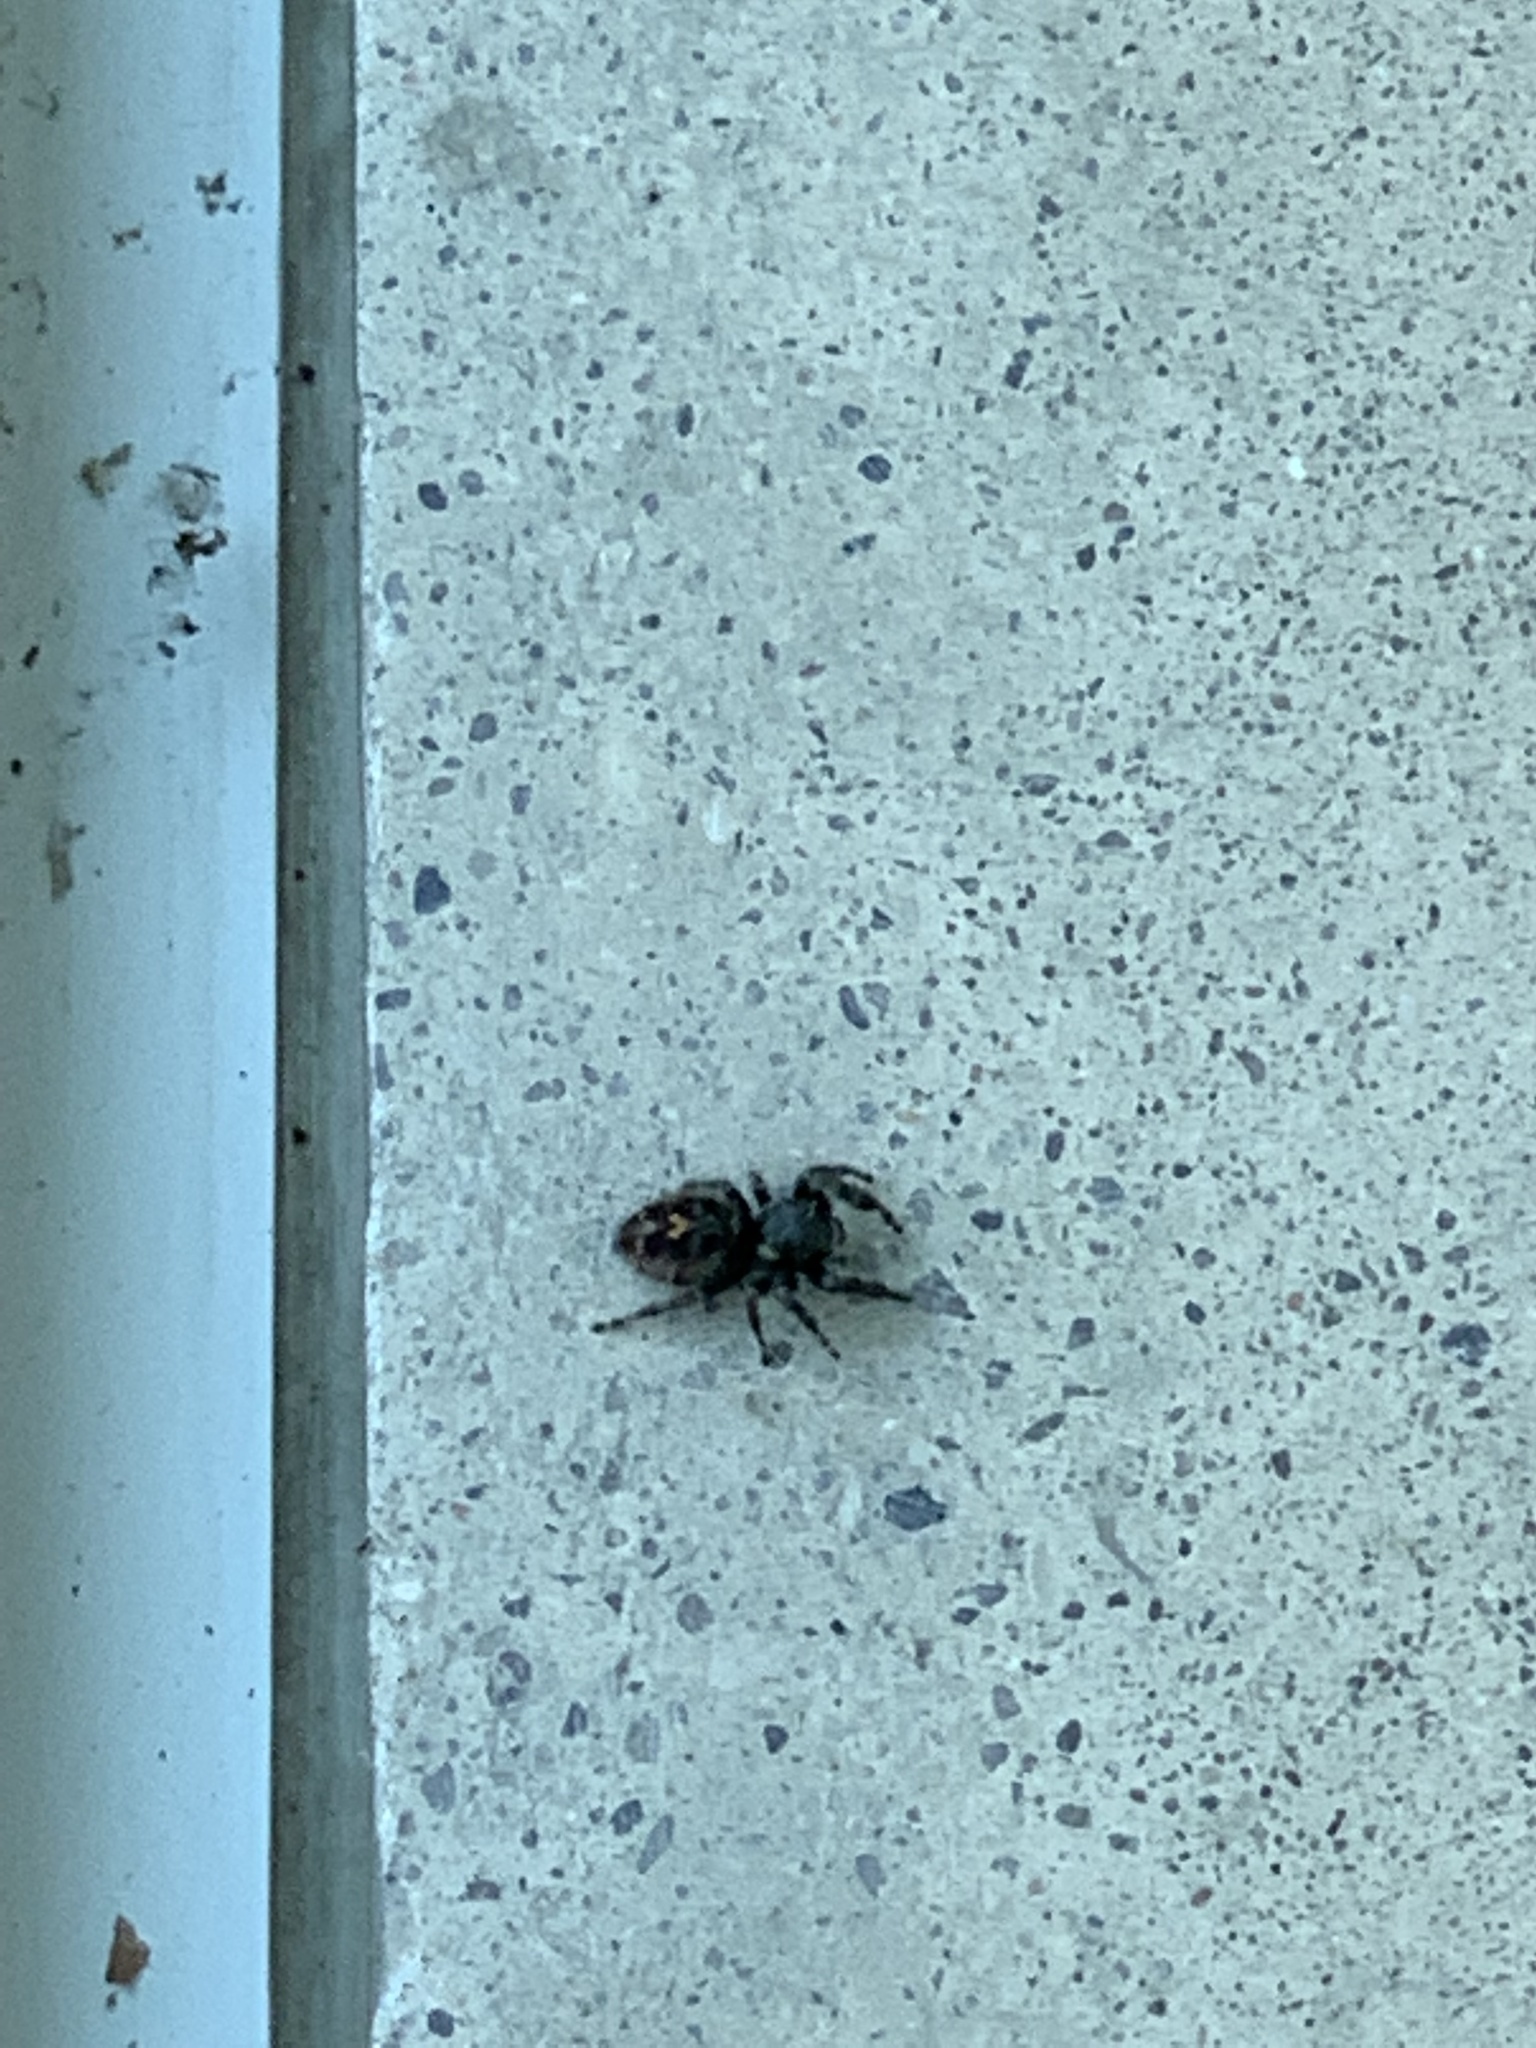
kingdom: Animalia
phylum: Arthropoda
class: Arachnida
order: Araneae
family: Salticidae
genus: Phidippus
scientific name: Phidippus audax
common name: Bold jumper
